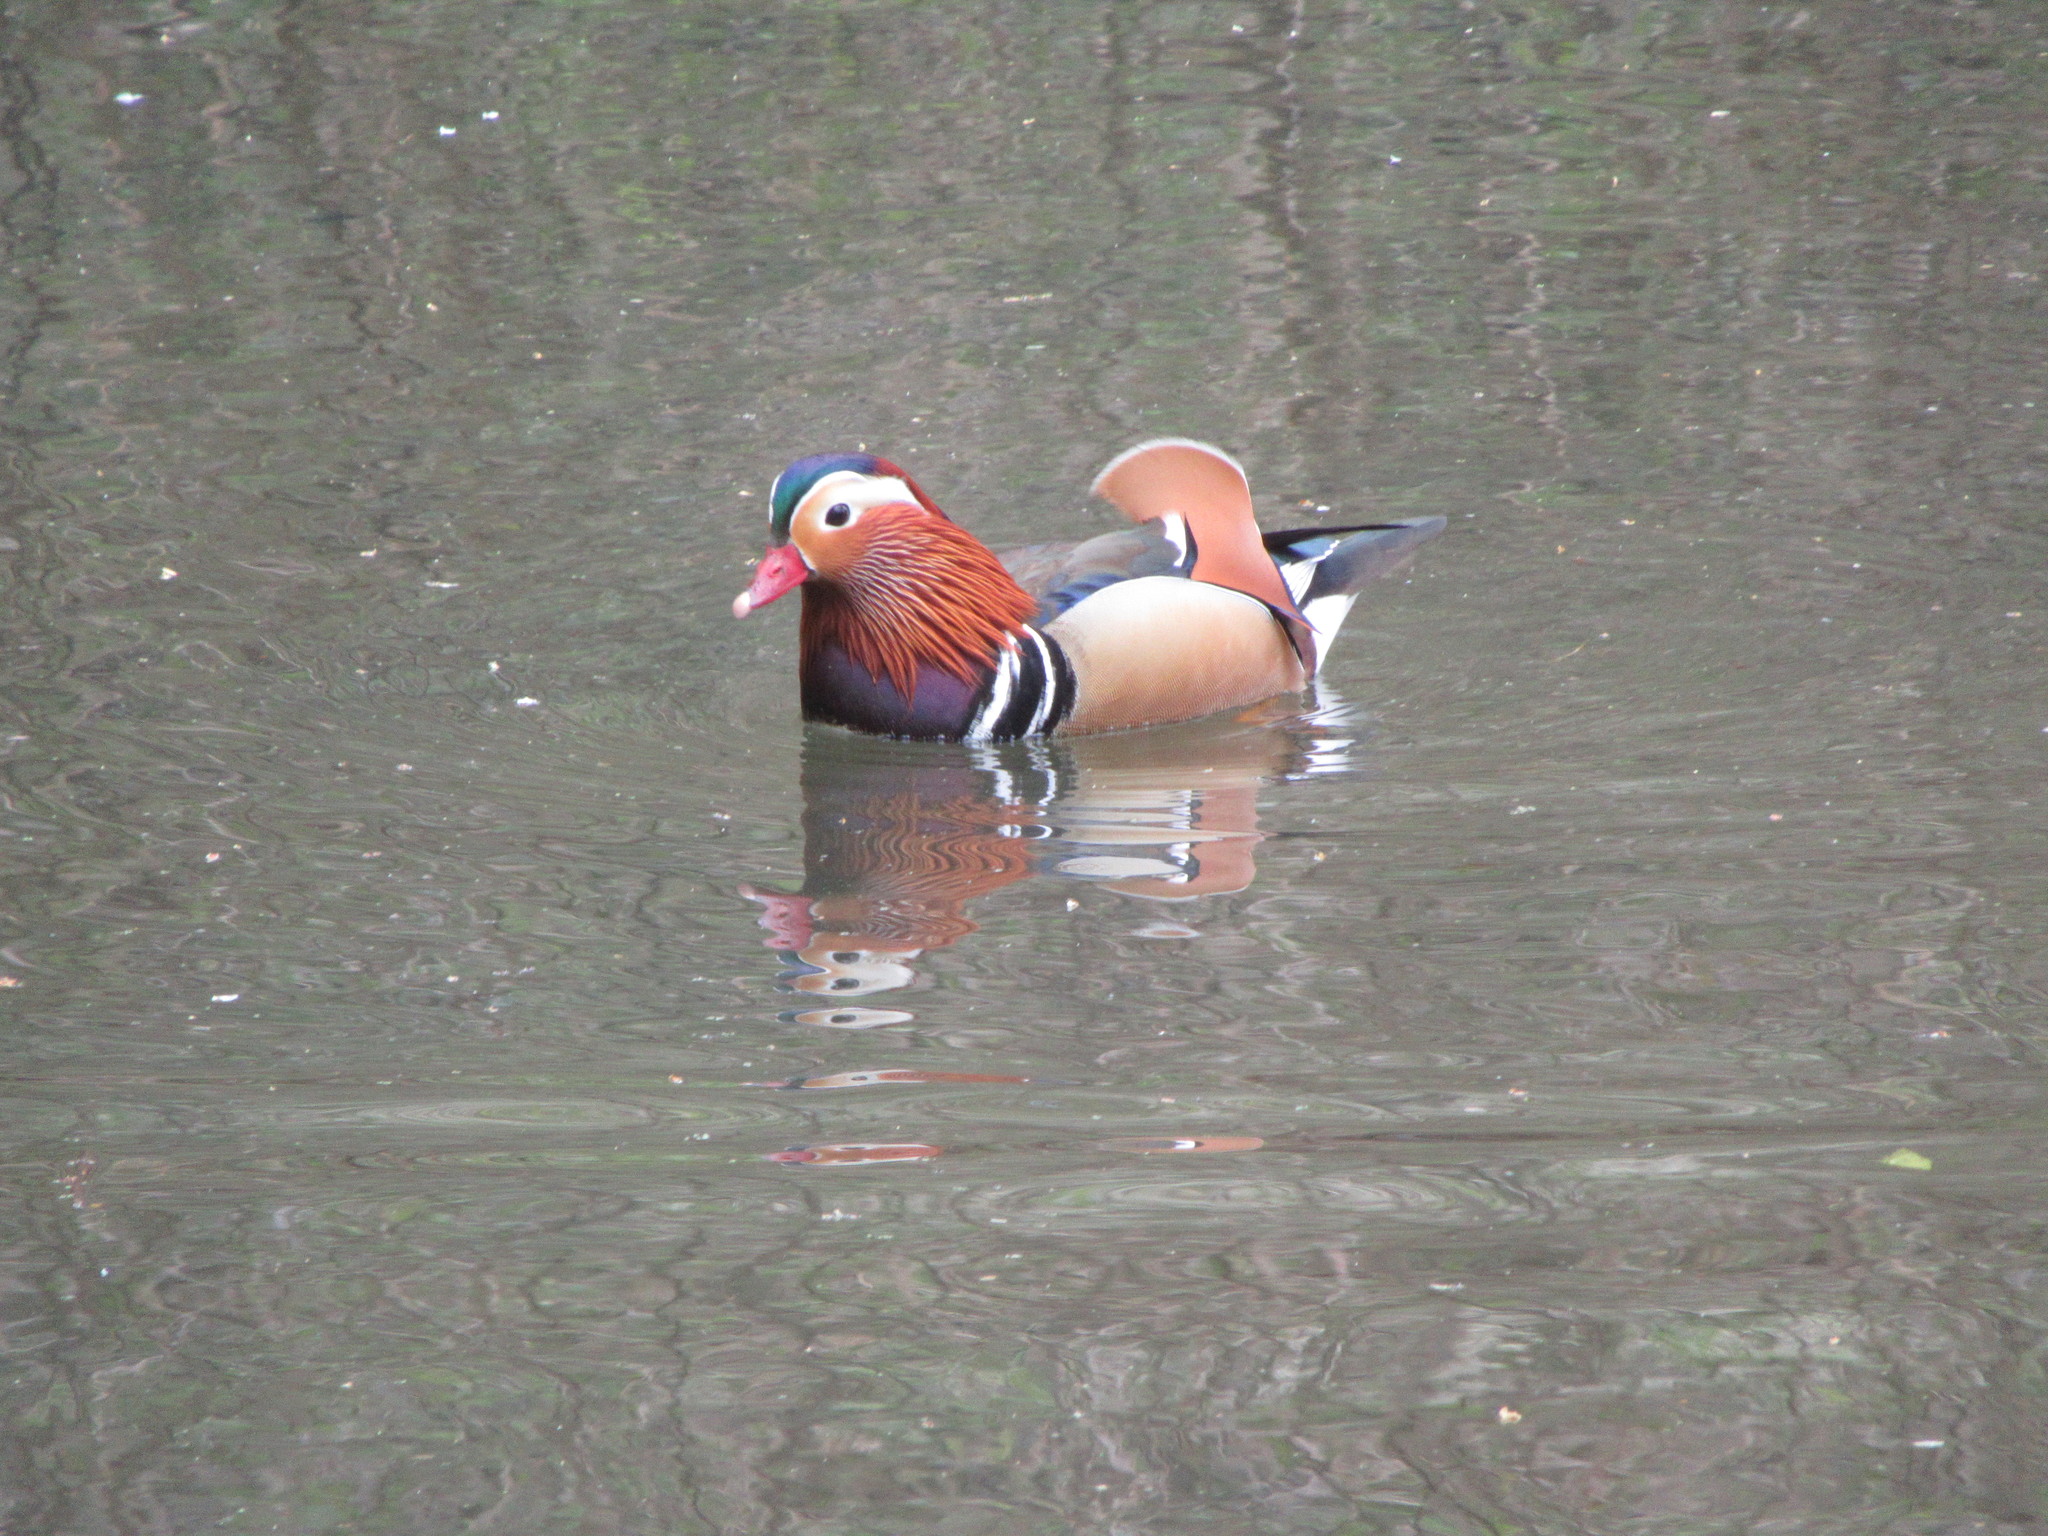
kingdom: Animalia
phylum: Chordata
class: Aves
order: Anseriformes
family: Anatidae
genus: Aix
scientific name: Aix galericulata
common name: Mandarin duck
